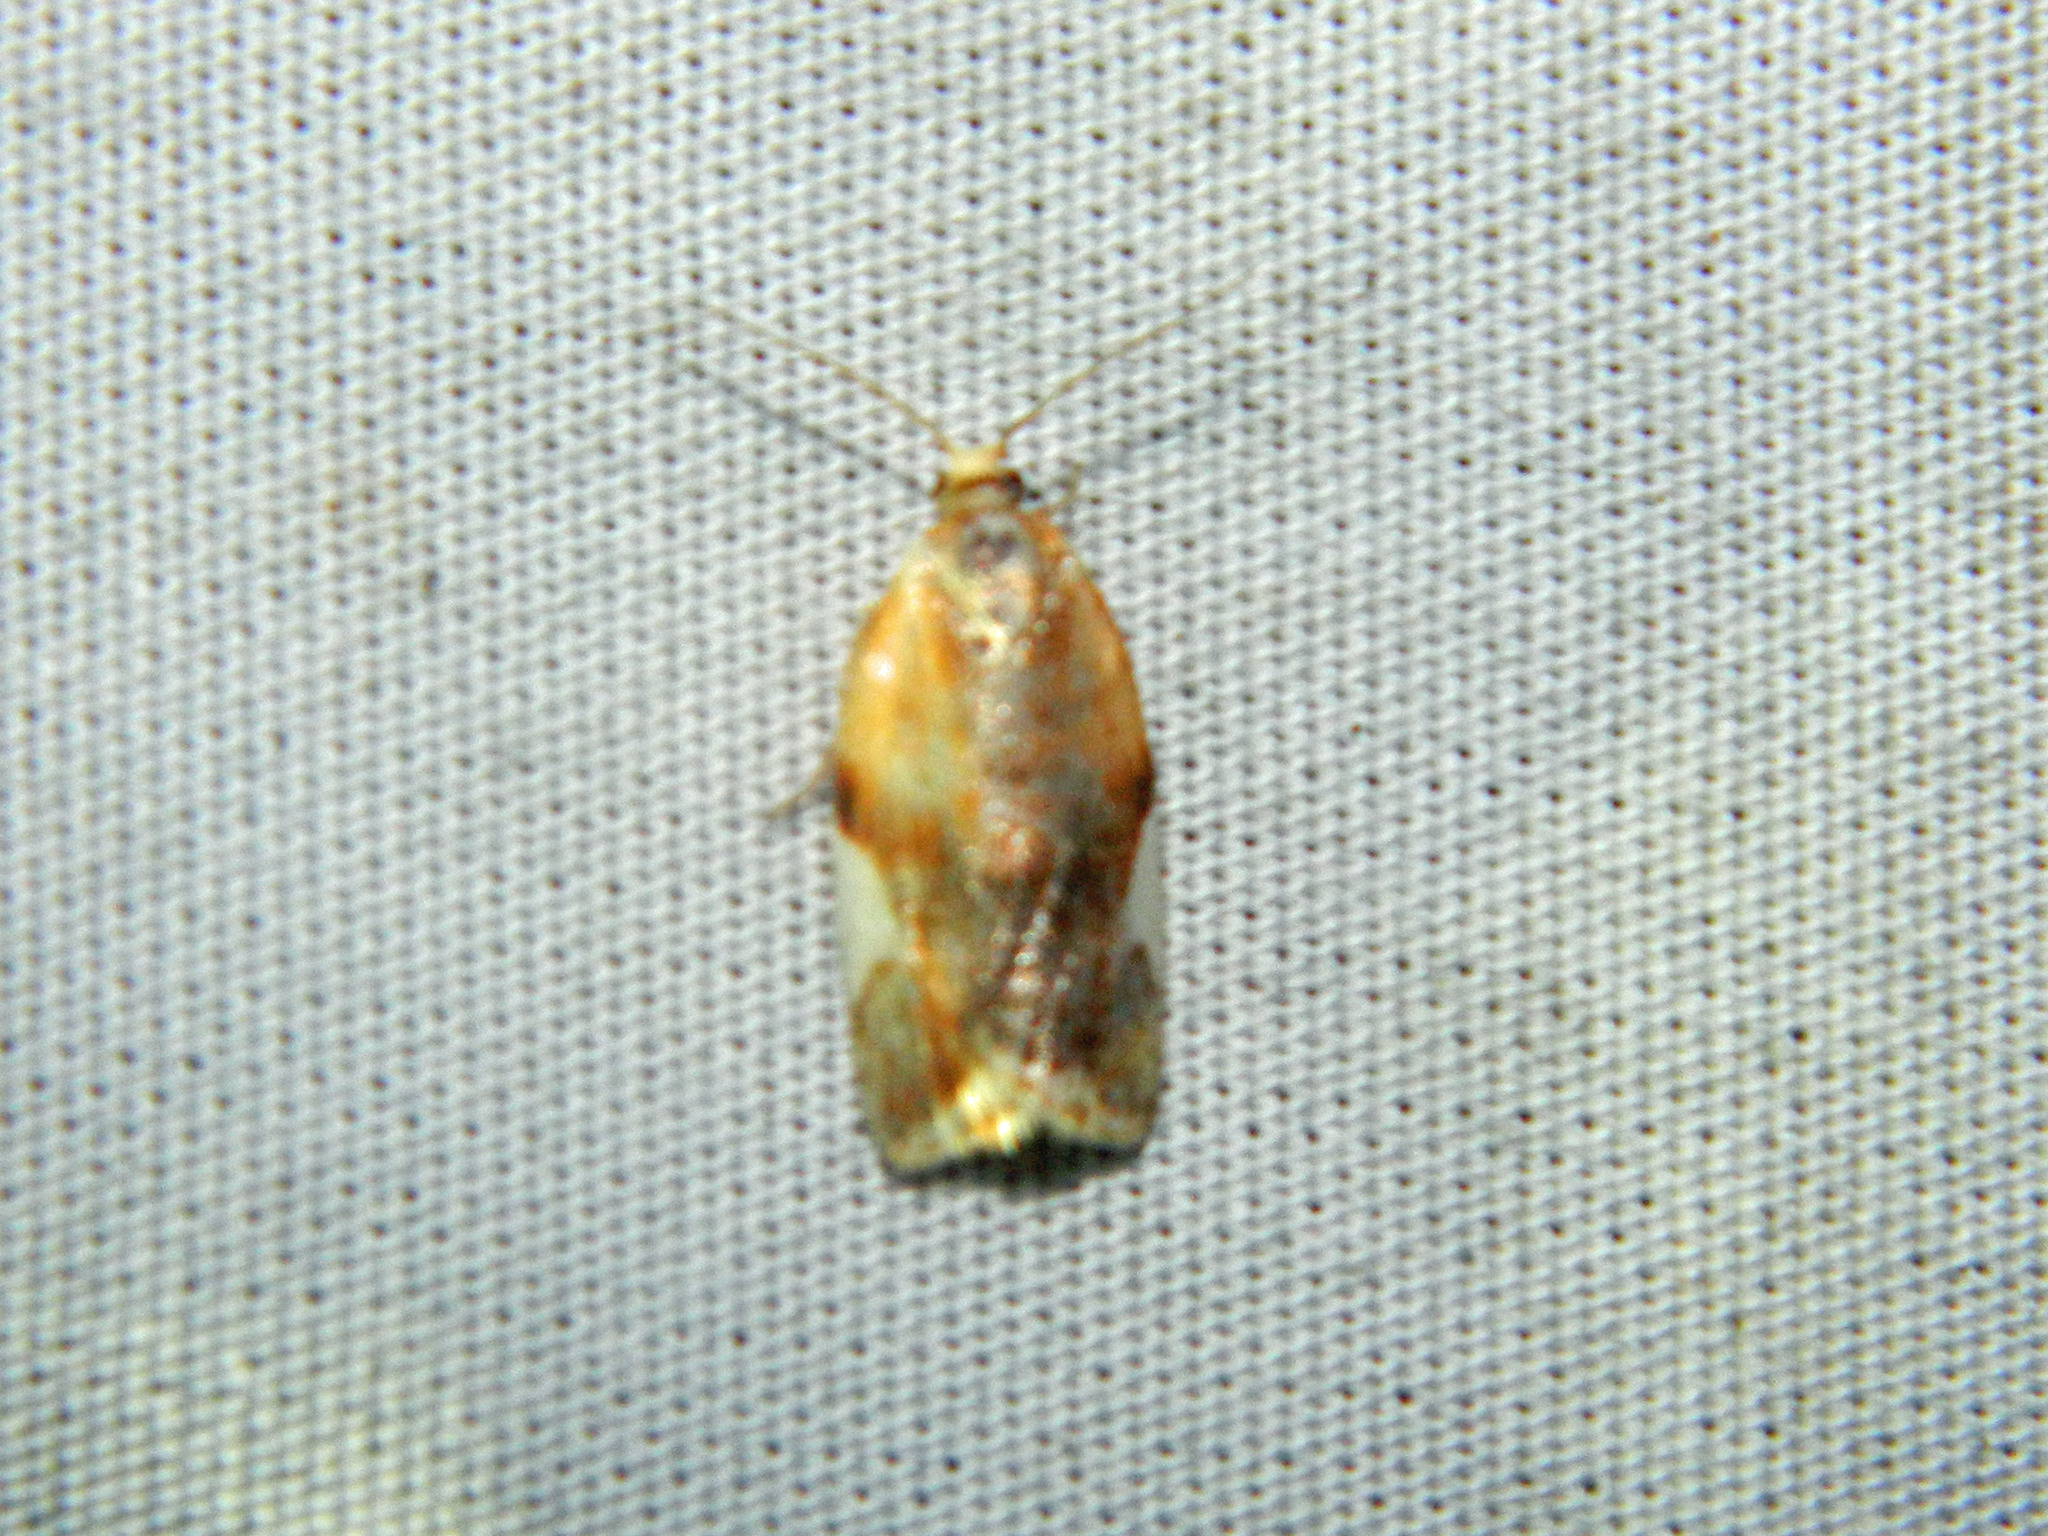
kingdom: Animalia
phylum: Arthropoda
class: Insecta
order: Lepidoptera
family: Tortricidae
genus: Clepsis
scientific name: Clepsis persicana
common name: White triangle tortrix
